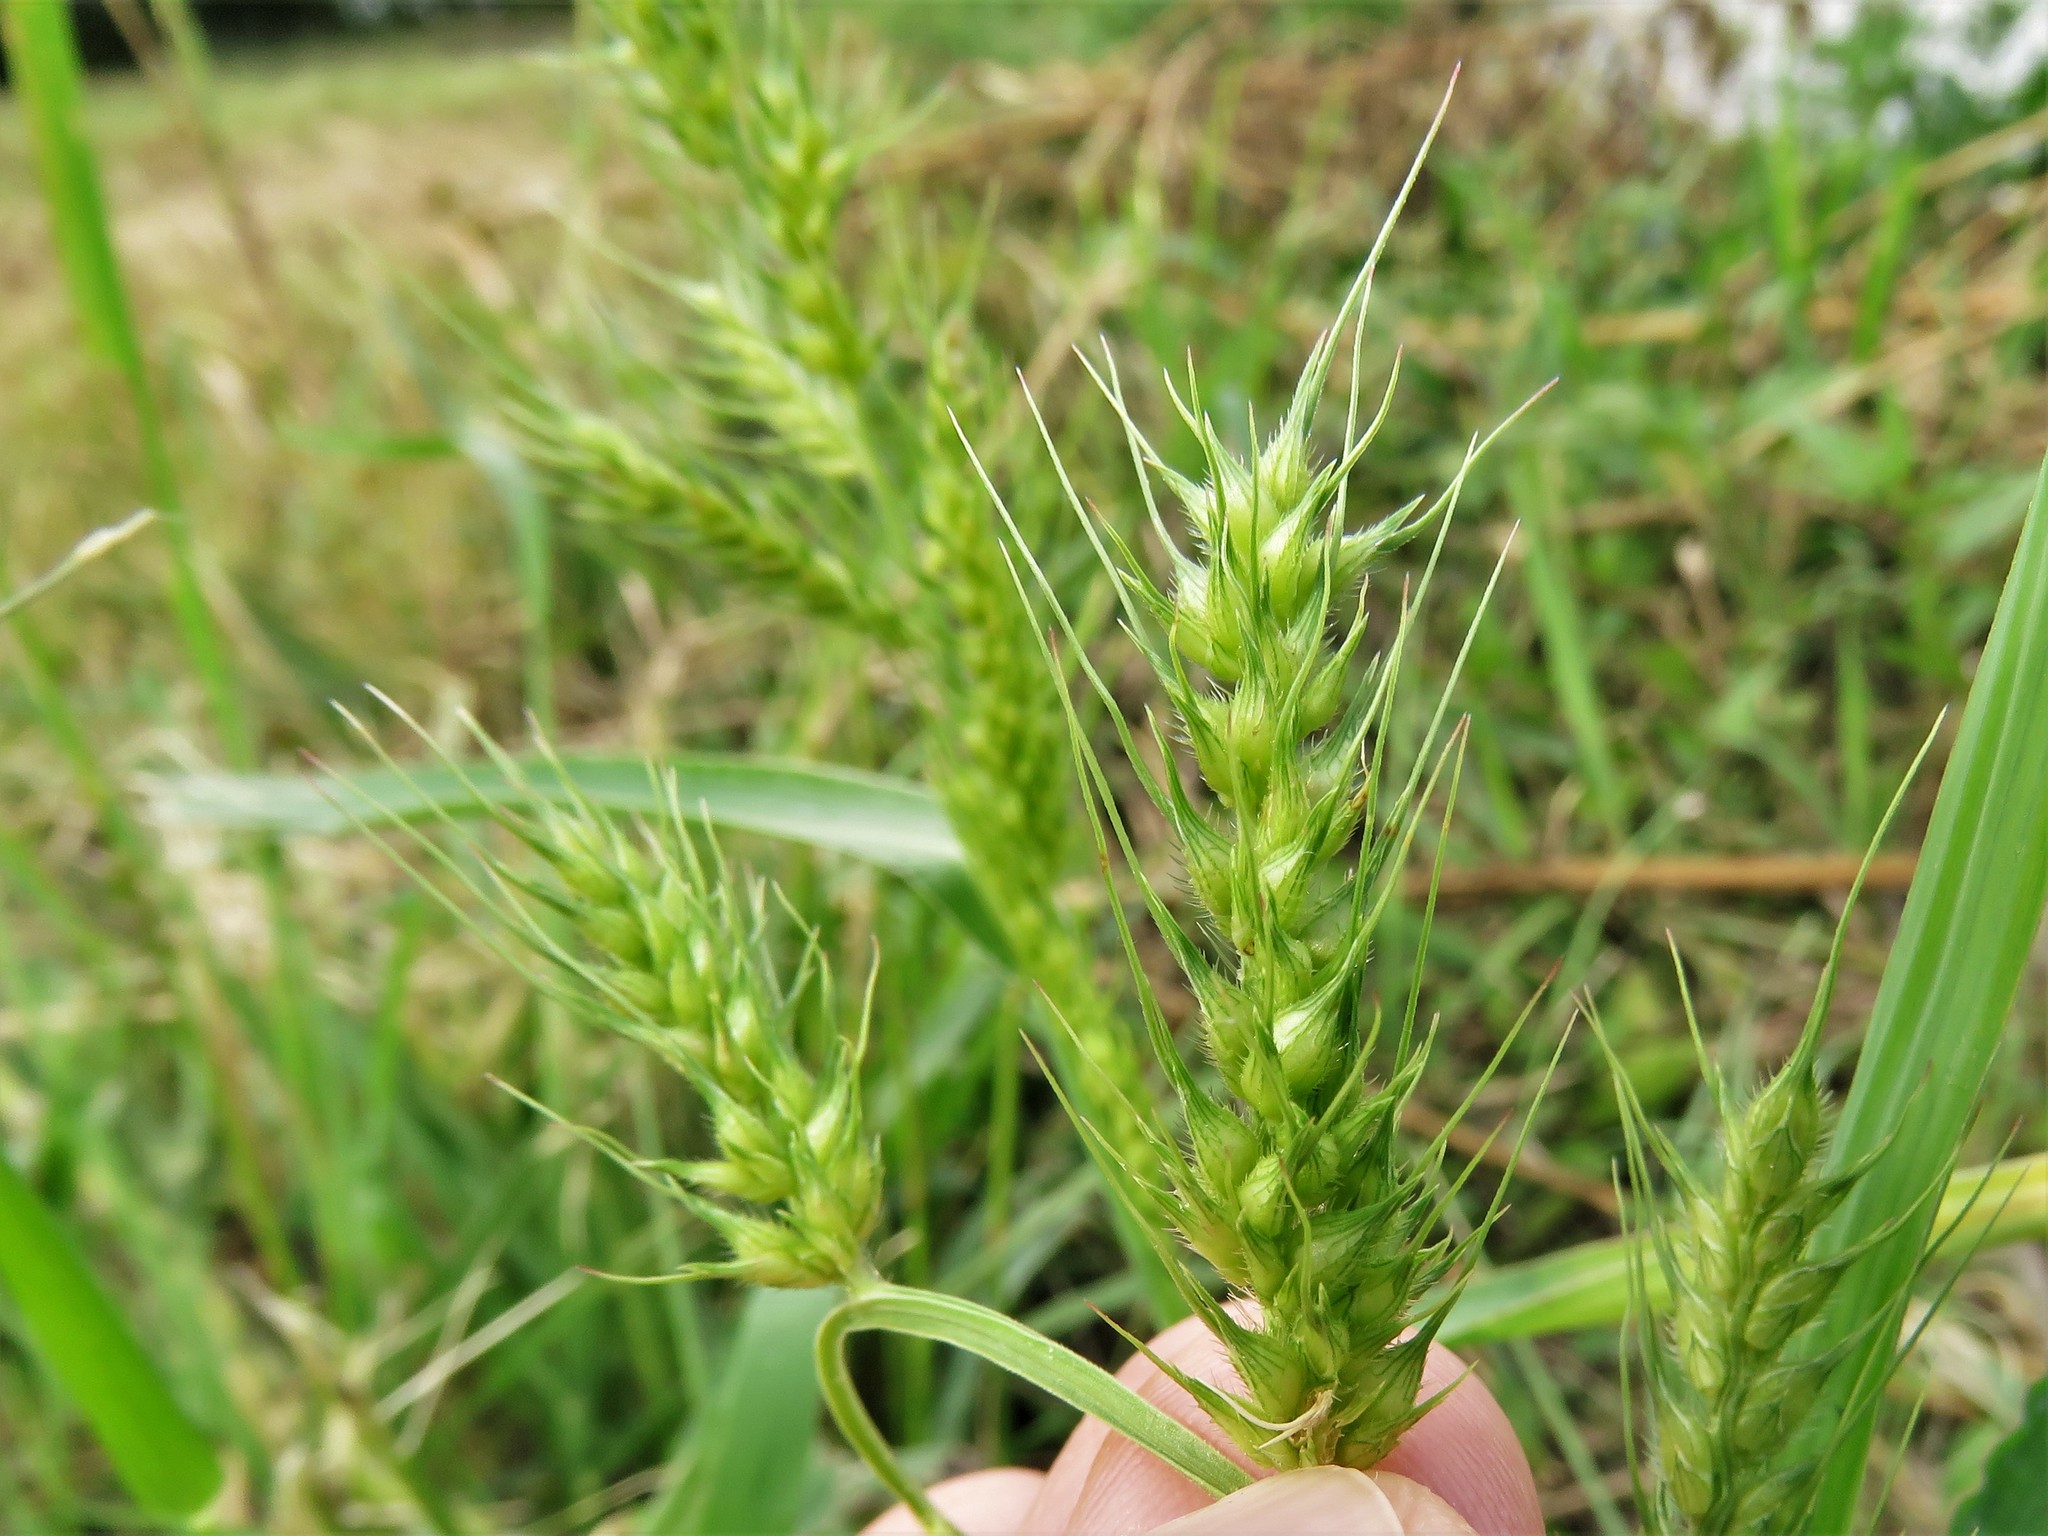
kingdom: Plantae
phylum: Tracheophyta
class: Liliopsida
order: Poales
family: Poaceae
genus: Echinochloa
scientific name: Echinochloa crus-galli
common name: Cockspur
